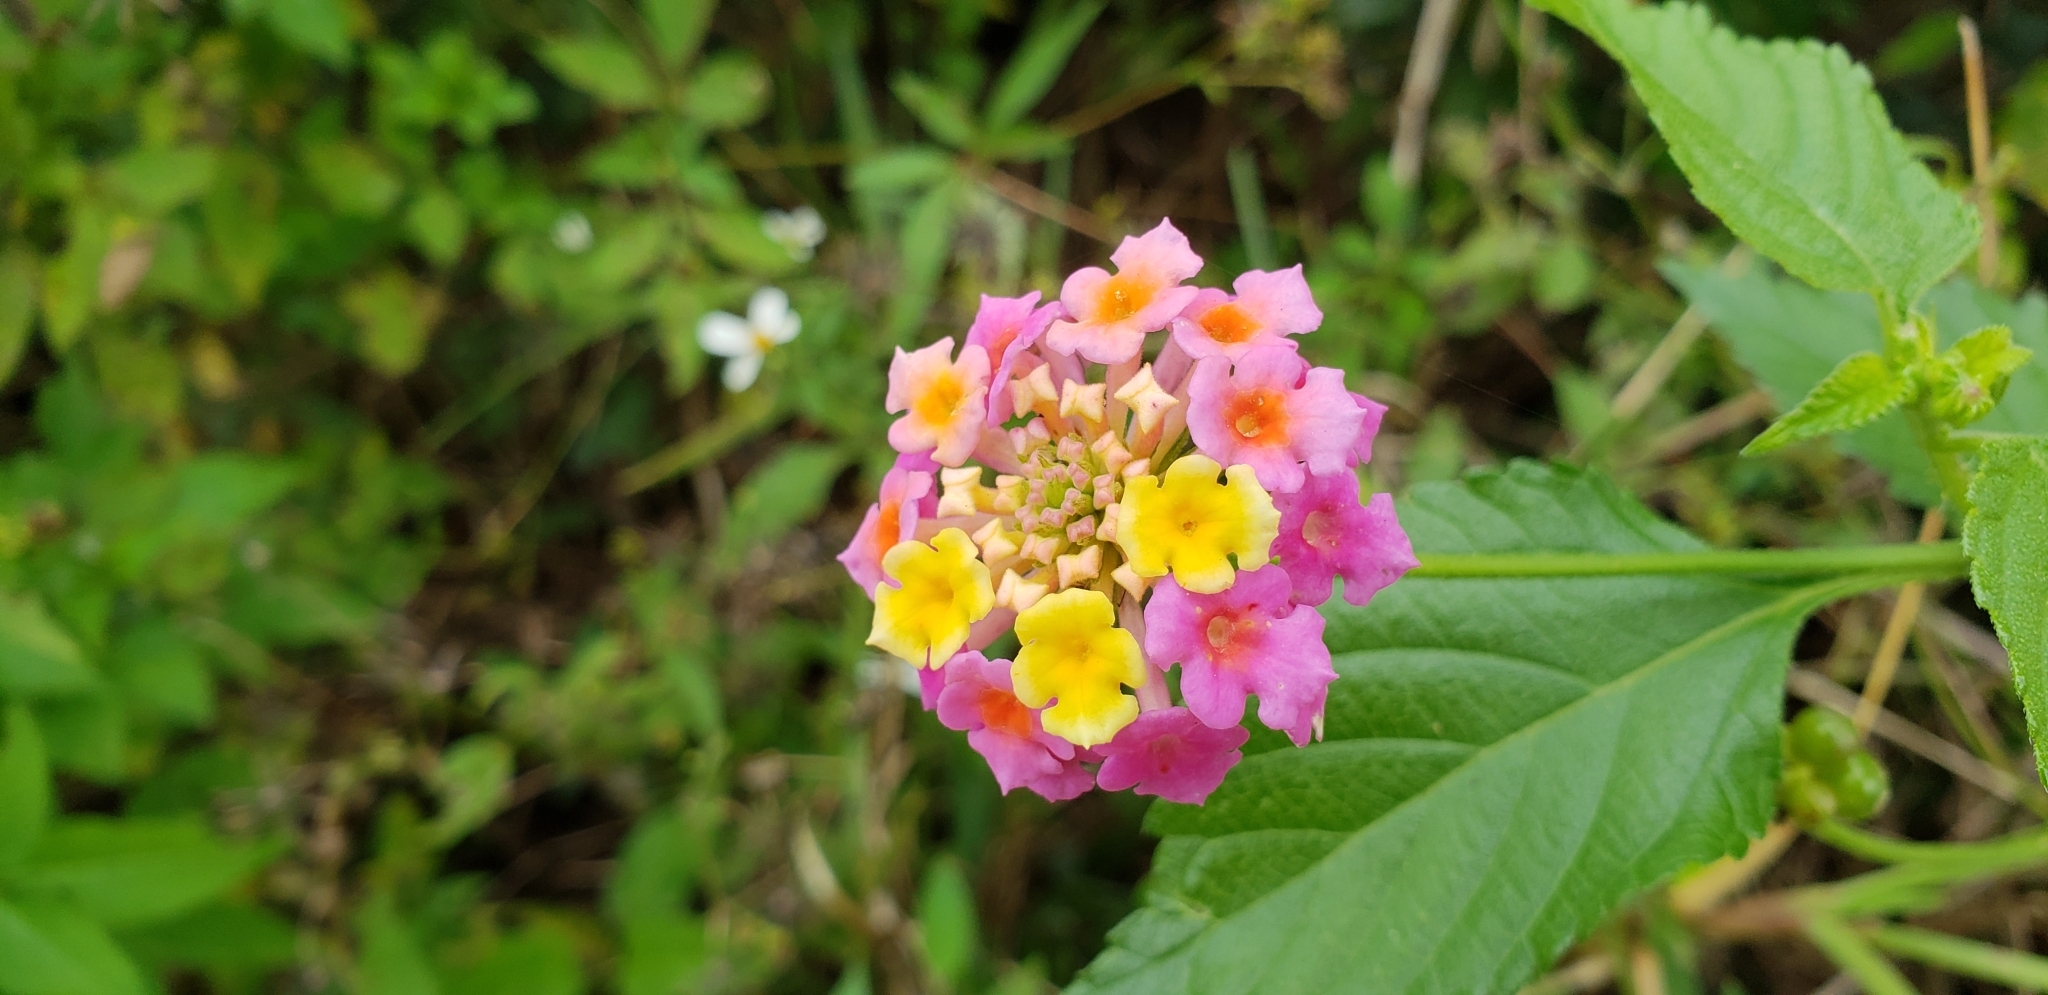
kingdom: Plantae
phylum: Tracheophyta
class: Magnoliopsida
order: Lamiales
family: Verbenaceae
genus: Lantana
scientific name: Lantana camara
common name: Lantana
